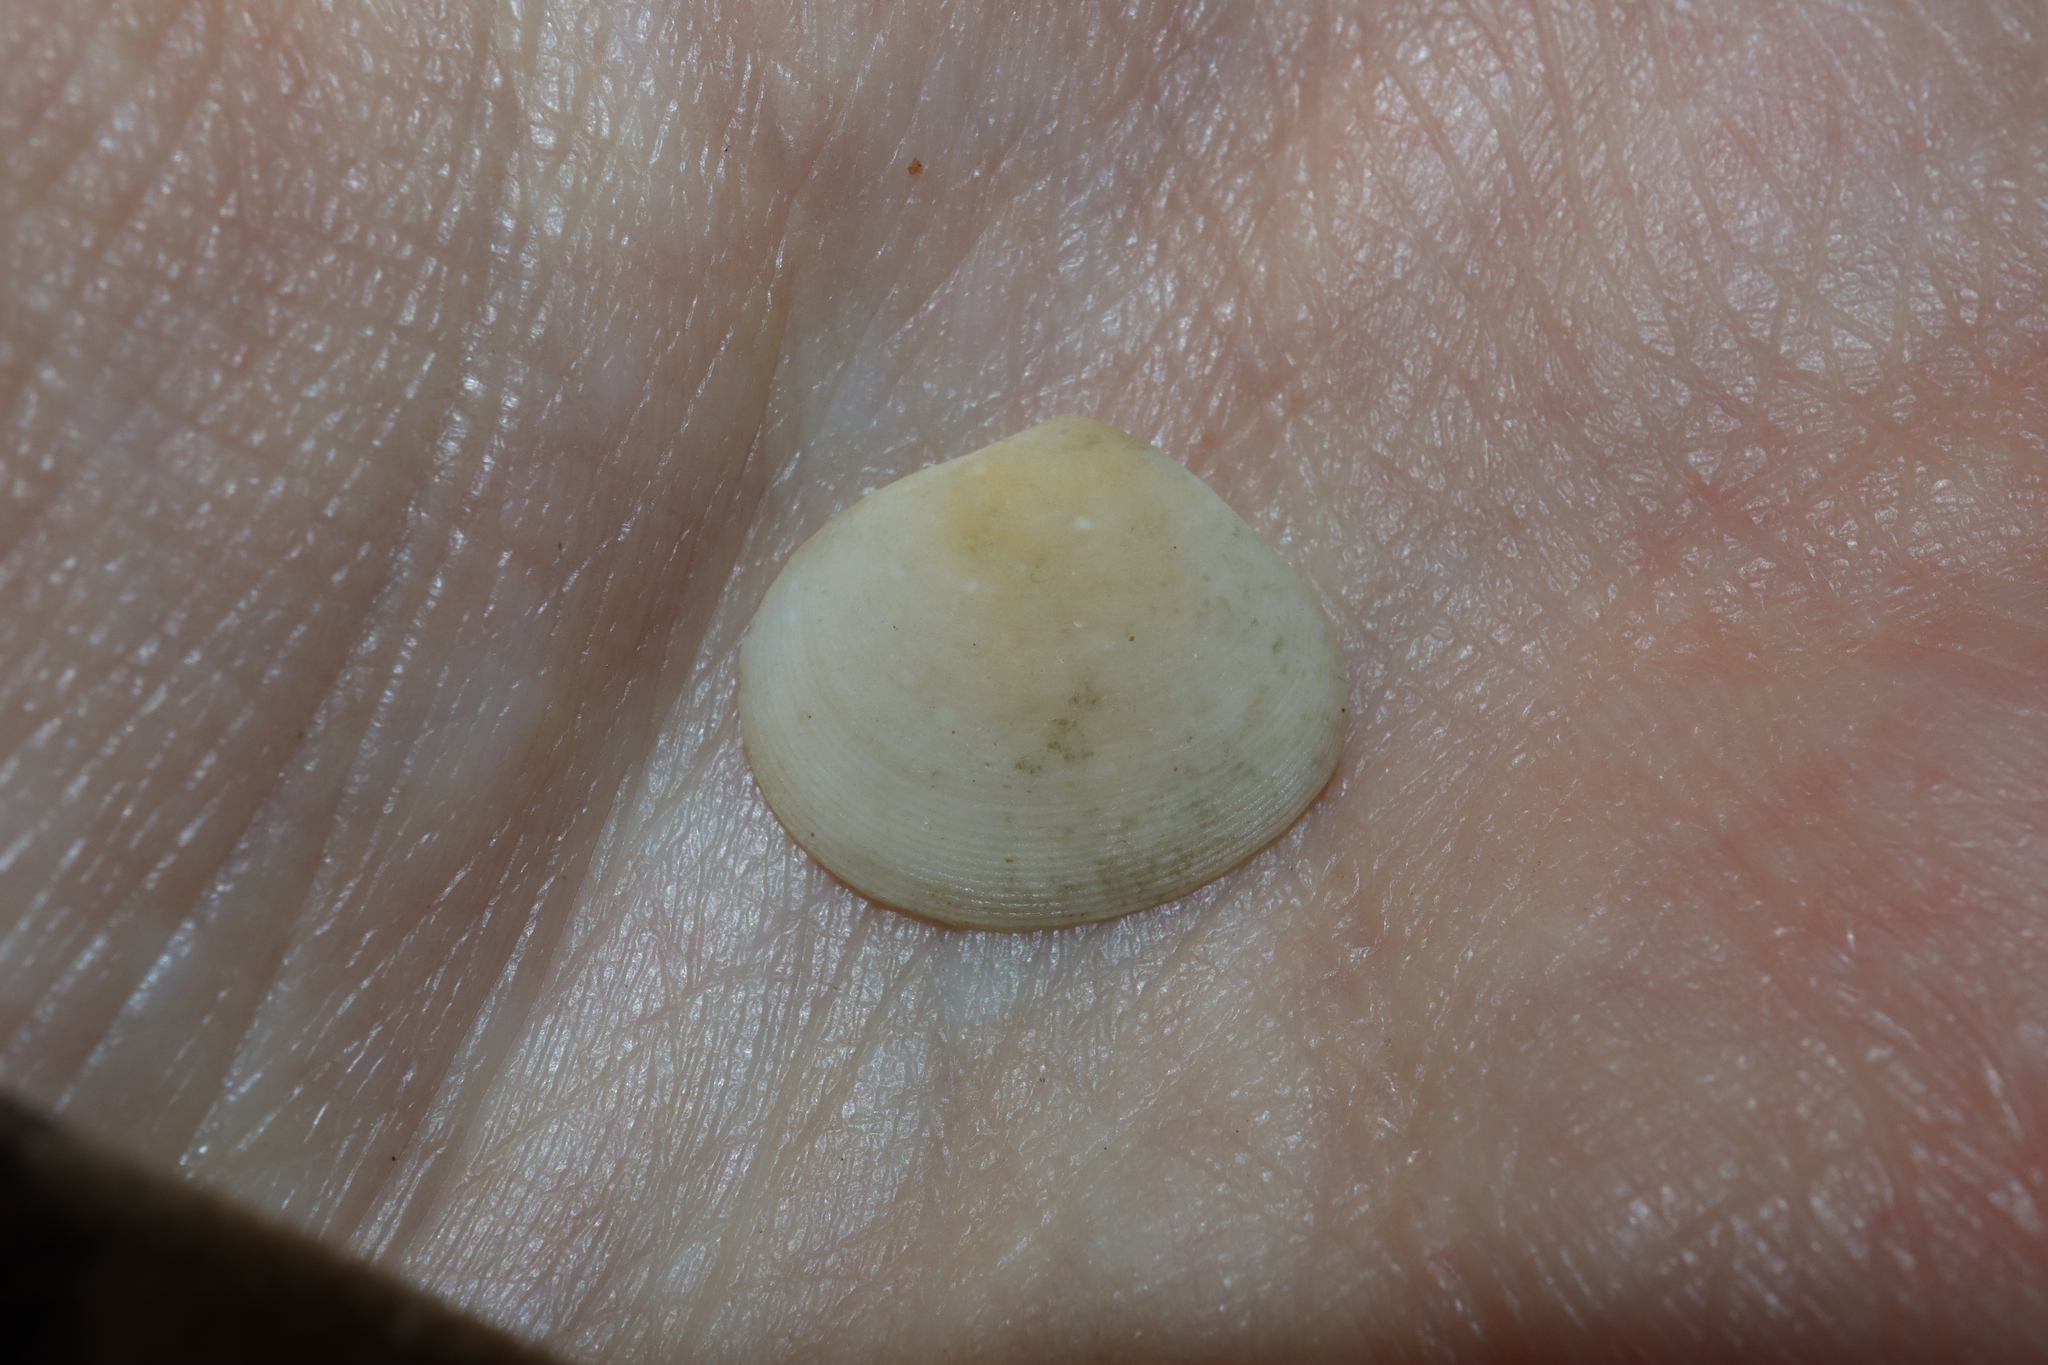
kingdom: Animalia
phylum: Mollusca
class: Bivalvia
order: Cardiida
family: Tellinidae
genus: Pseudarcopagia
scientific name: Pseudarcopagia botanica
